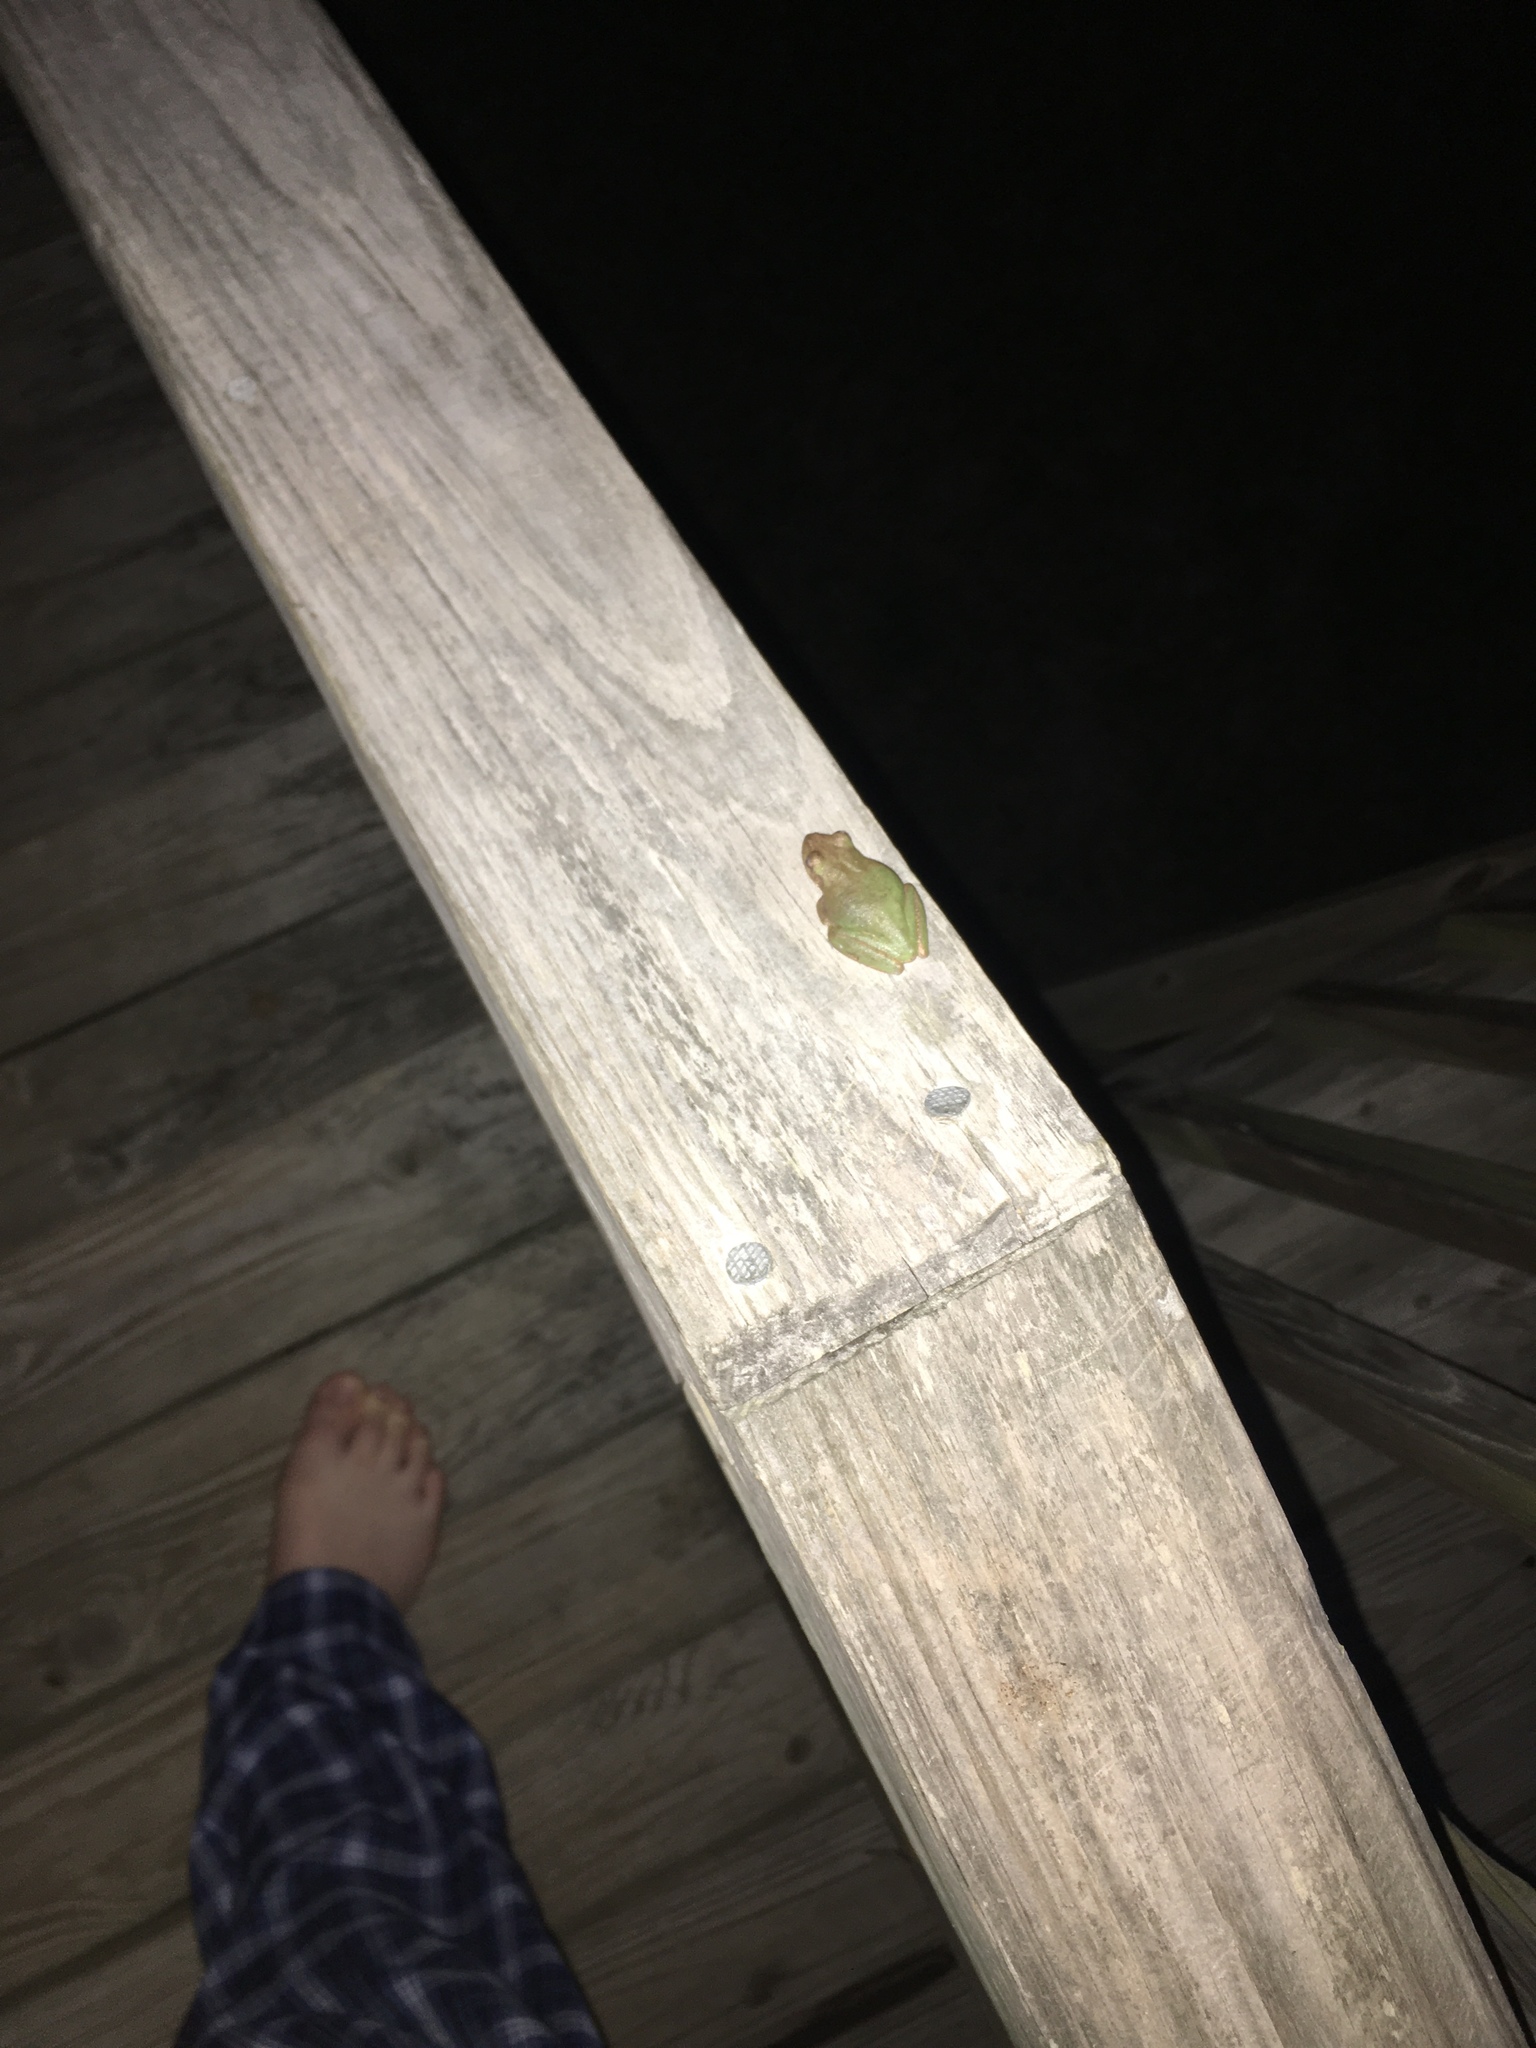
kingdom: Animalia
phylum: Chordata
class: Amphibia
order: Anura
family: Hylidae
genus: Dryophytes
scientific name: Dryophytes squirellus
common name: Squirrel treefrog
